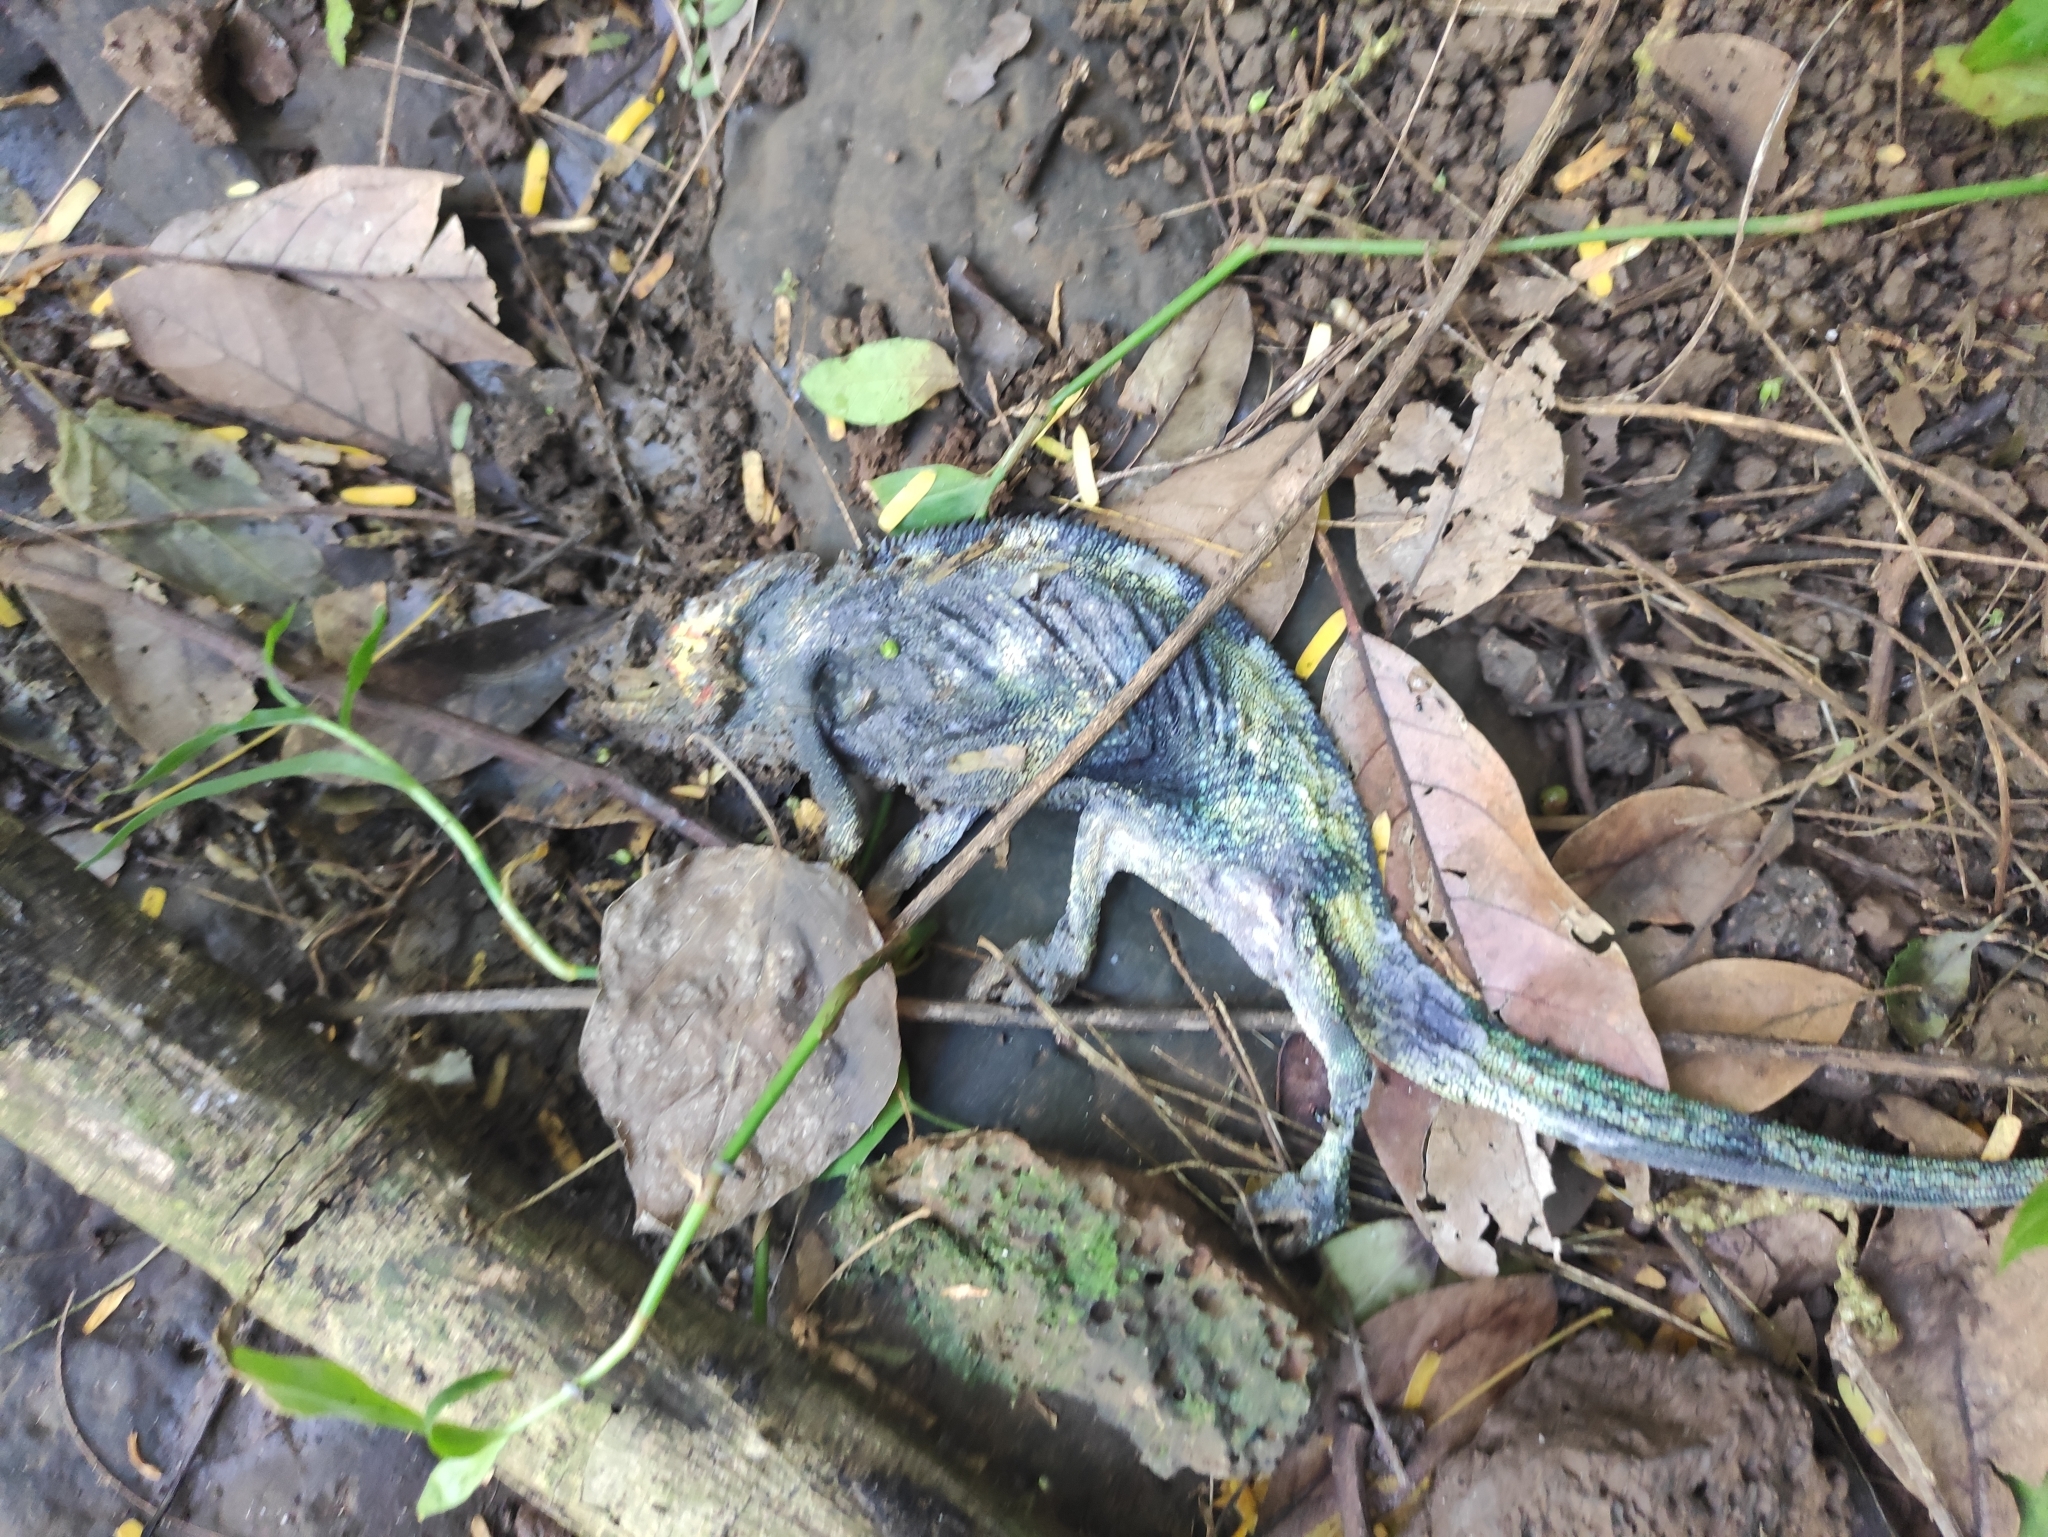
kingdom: Animalia
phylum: Chordata
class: Squamata
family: Chamaeleonidae
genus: Furcifer
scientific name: Furcifer pardalis
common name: Panther chameleon
